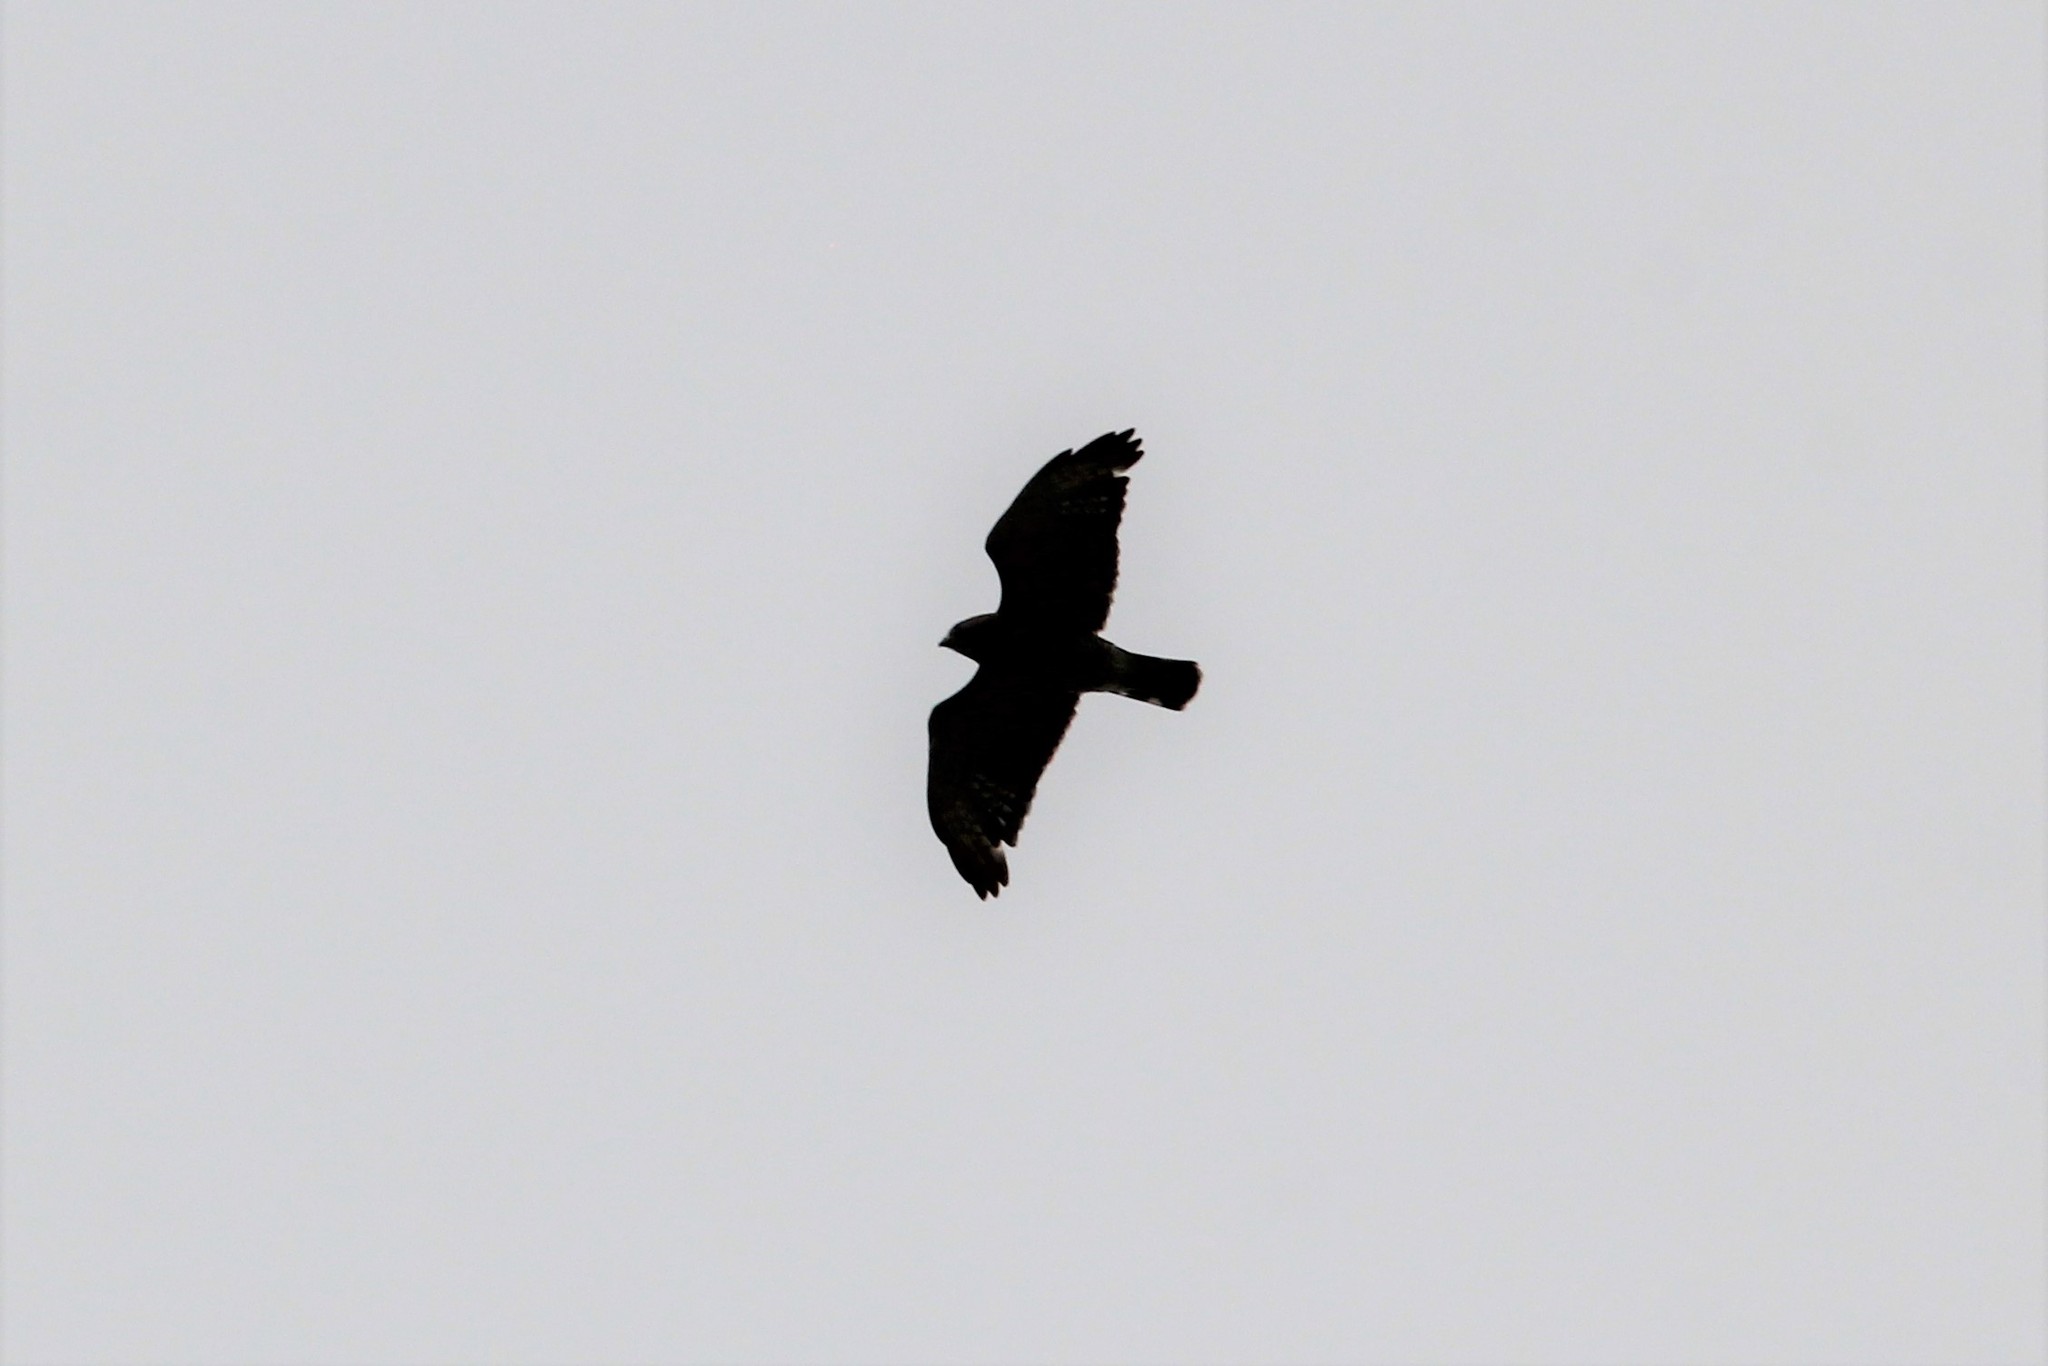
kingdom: Animalia
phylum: Chordata
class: Aves
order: Accipitriformes
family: Accipitridae
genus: Buteo
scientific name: Buteo platypterus
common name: Broad-winged hawk
